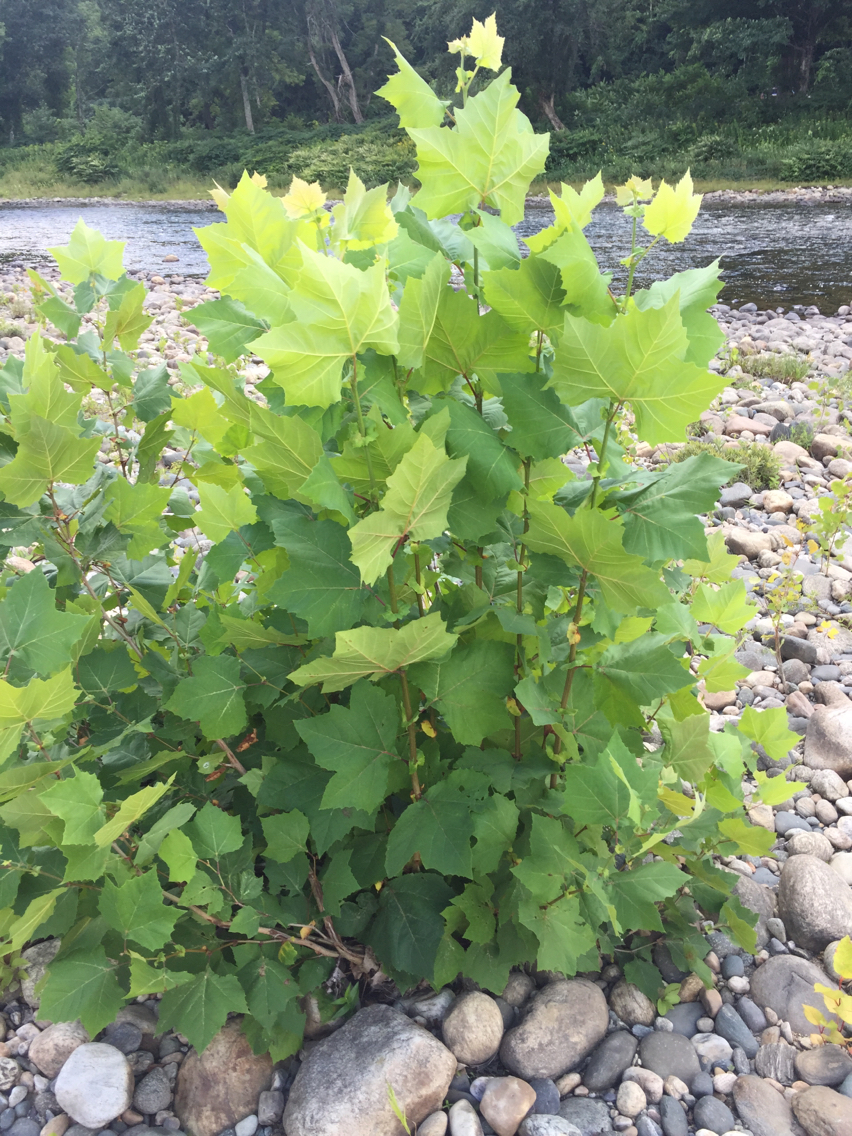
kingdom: Plantae
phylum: Tracheophyta
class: Magnoliopsida
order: Proteales
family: Platanaceae
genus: Platanus
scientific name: Platanus occidentalis
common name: American sycamore
